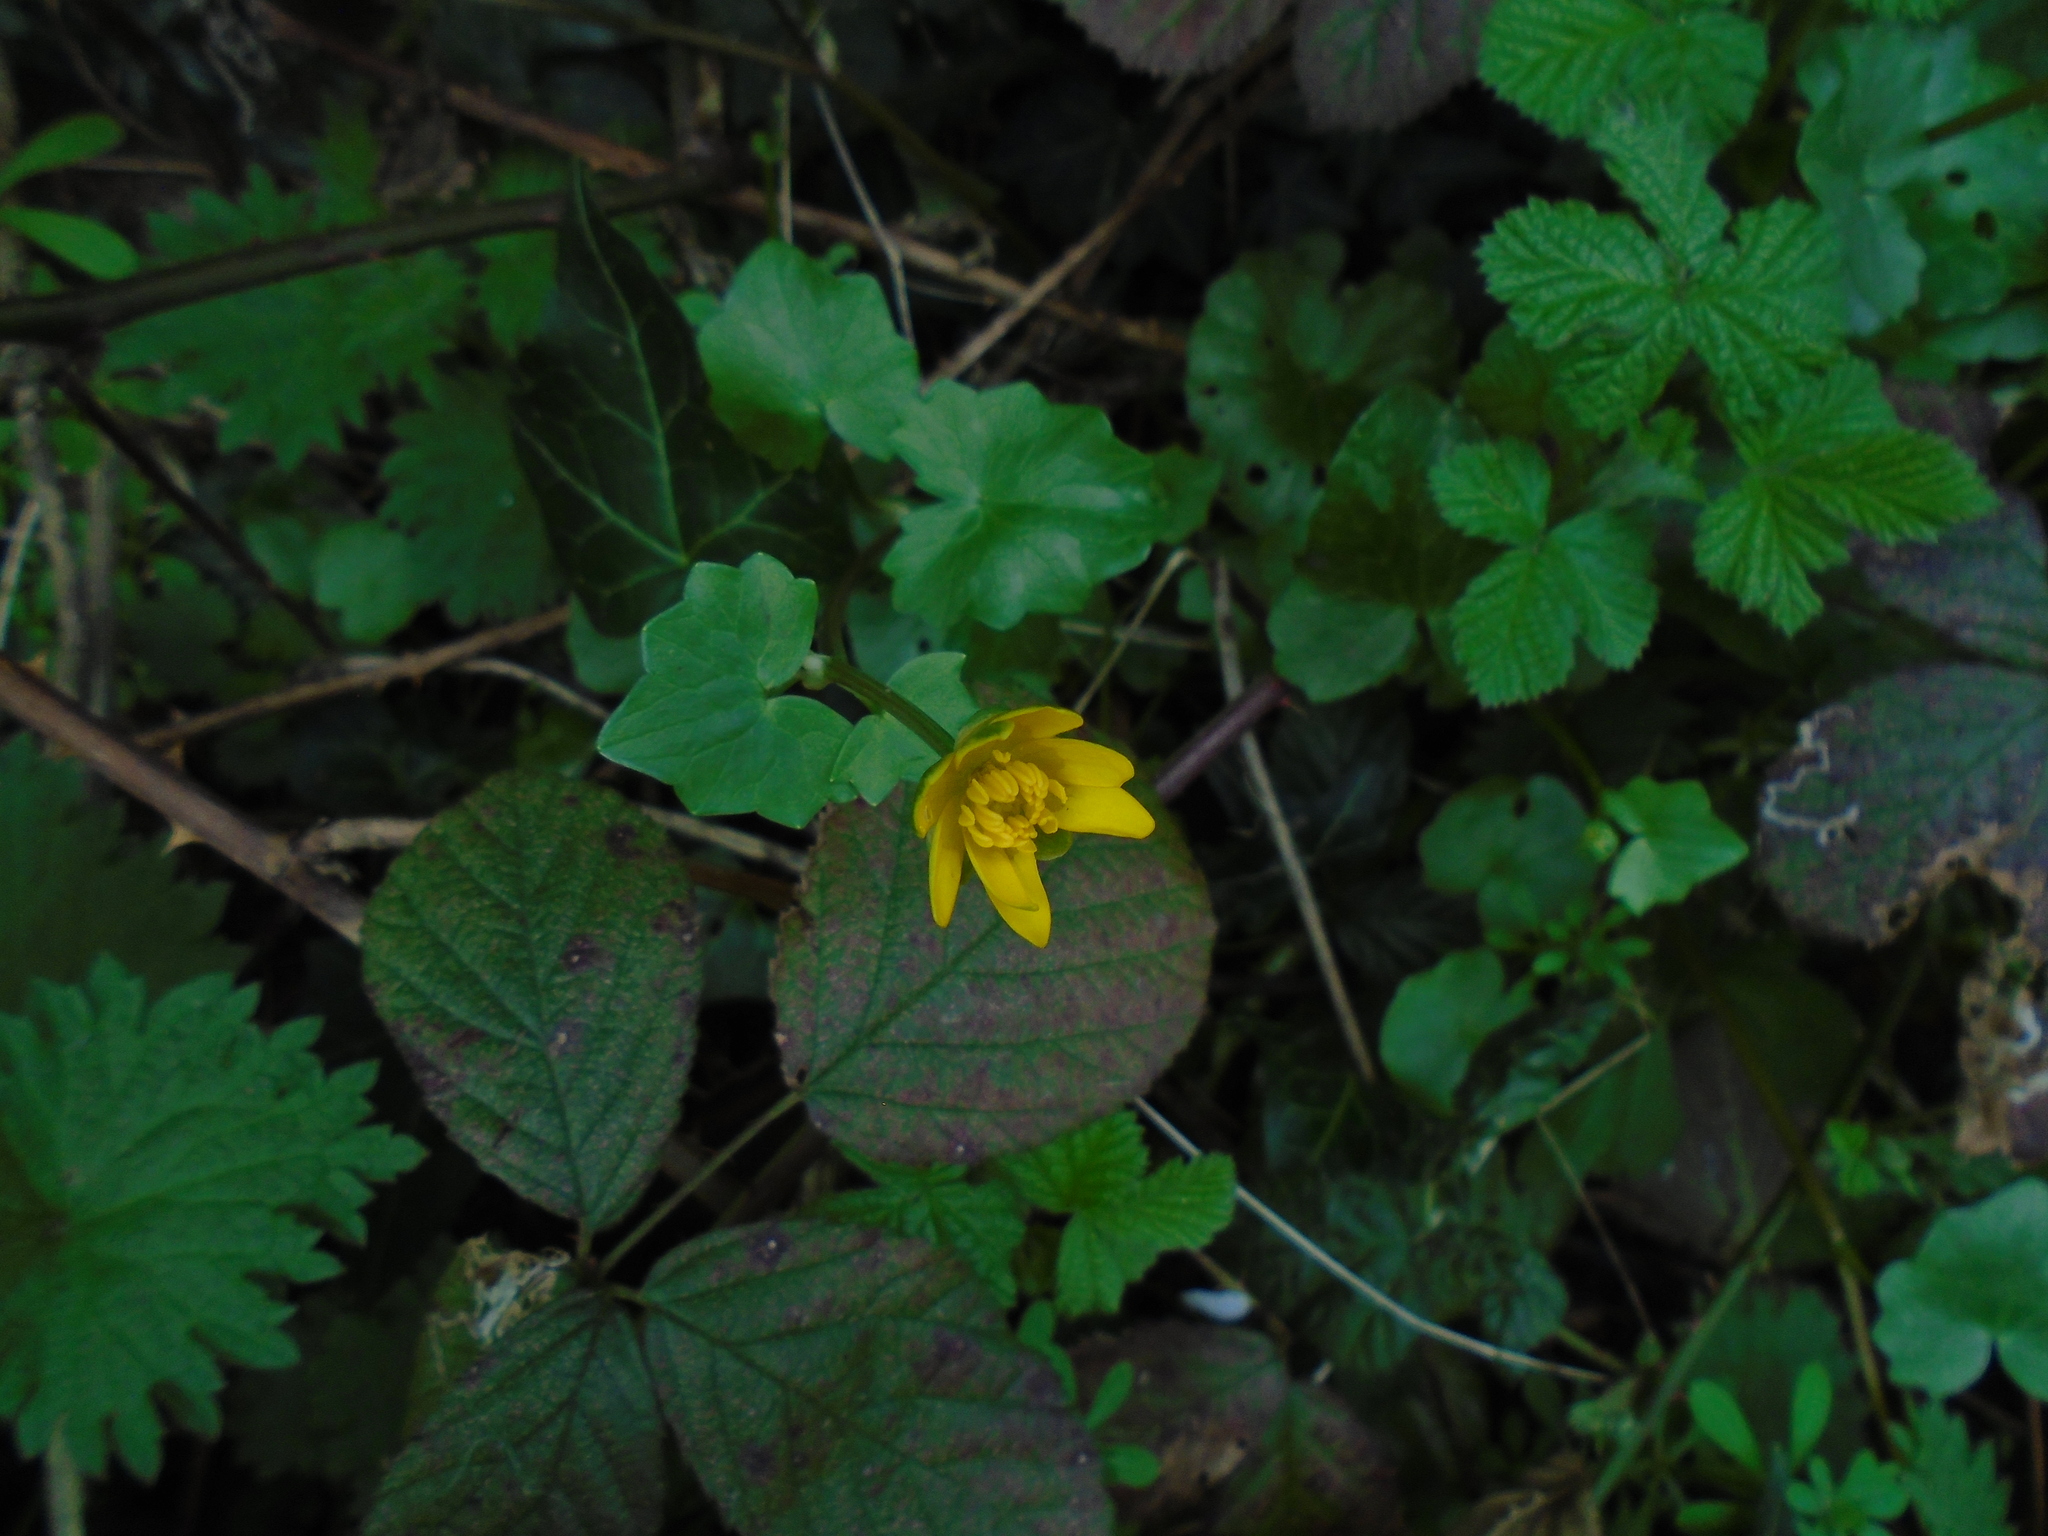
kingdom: Plantae
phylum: Tracheophyta
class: Magnoliopsida
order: Ranunculales
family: Ranunculaceae
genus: Ficaria
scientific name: Ficaria verna
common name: Lesser celandine
